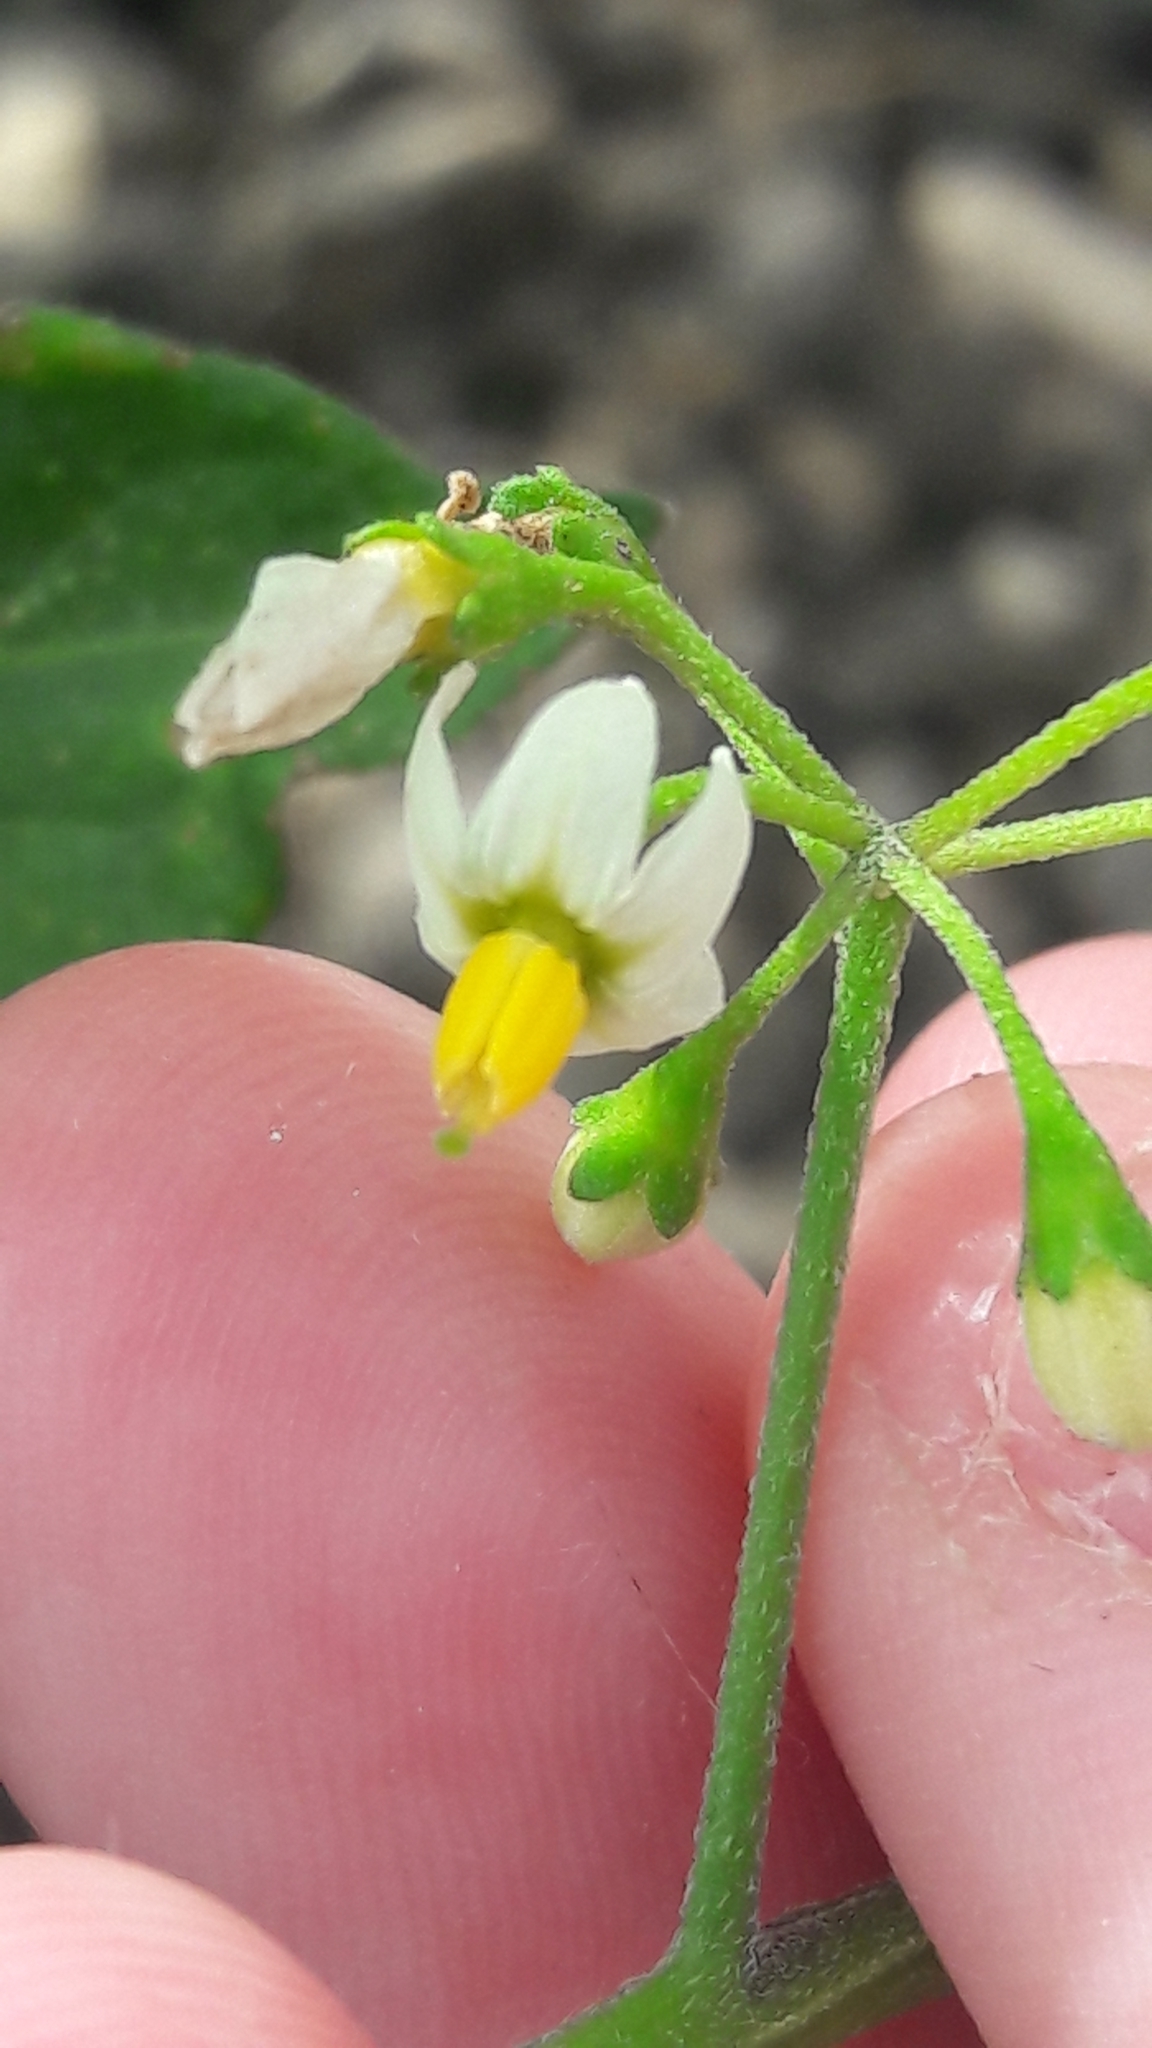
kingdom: Plantae
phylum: Tracheophyta
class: Magnoliopsida
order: Solanales
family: Solanaceae
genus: Solanum
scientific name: Solanum nigrum
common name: Black nightshade
